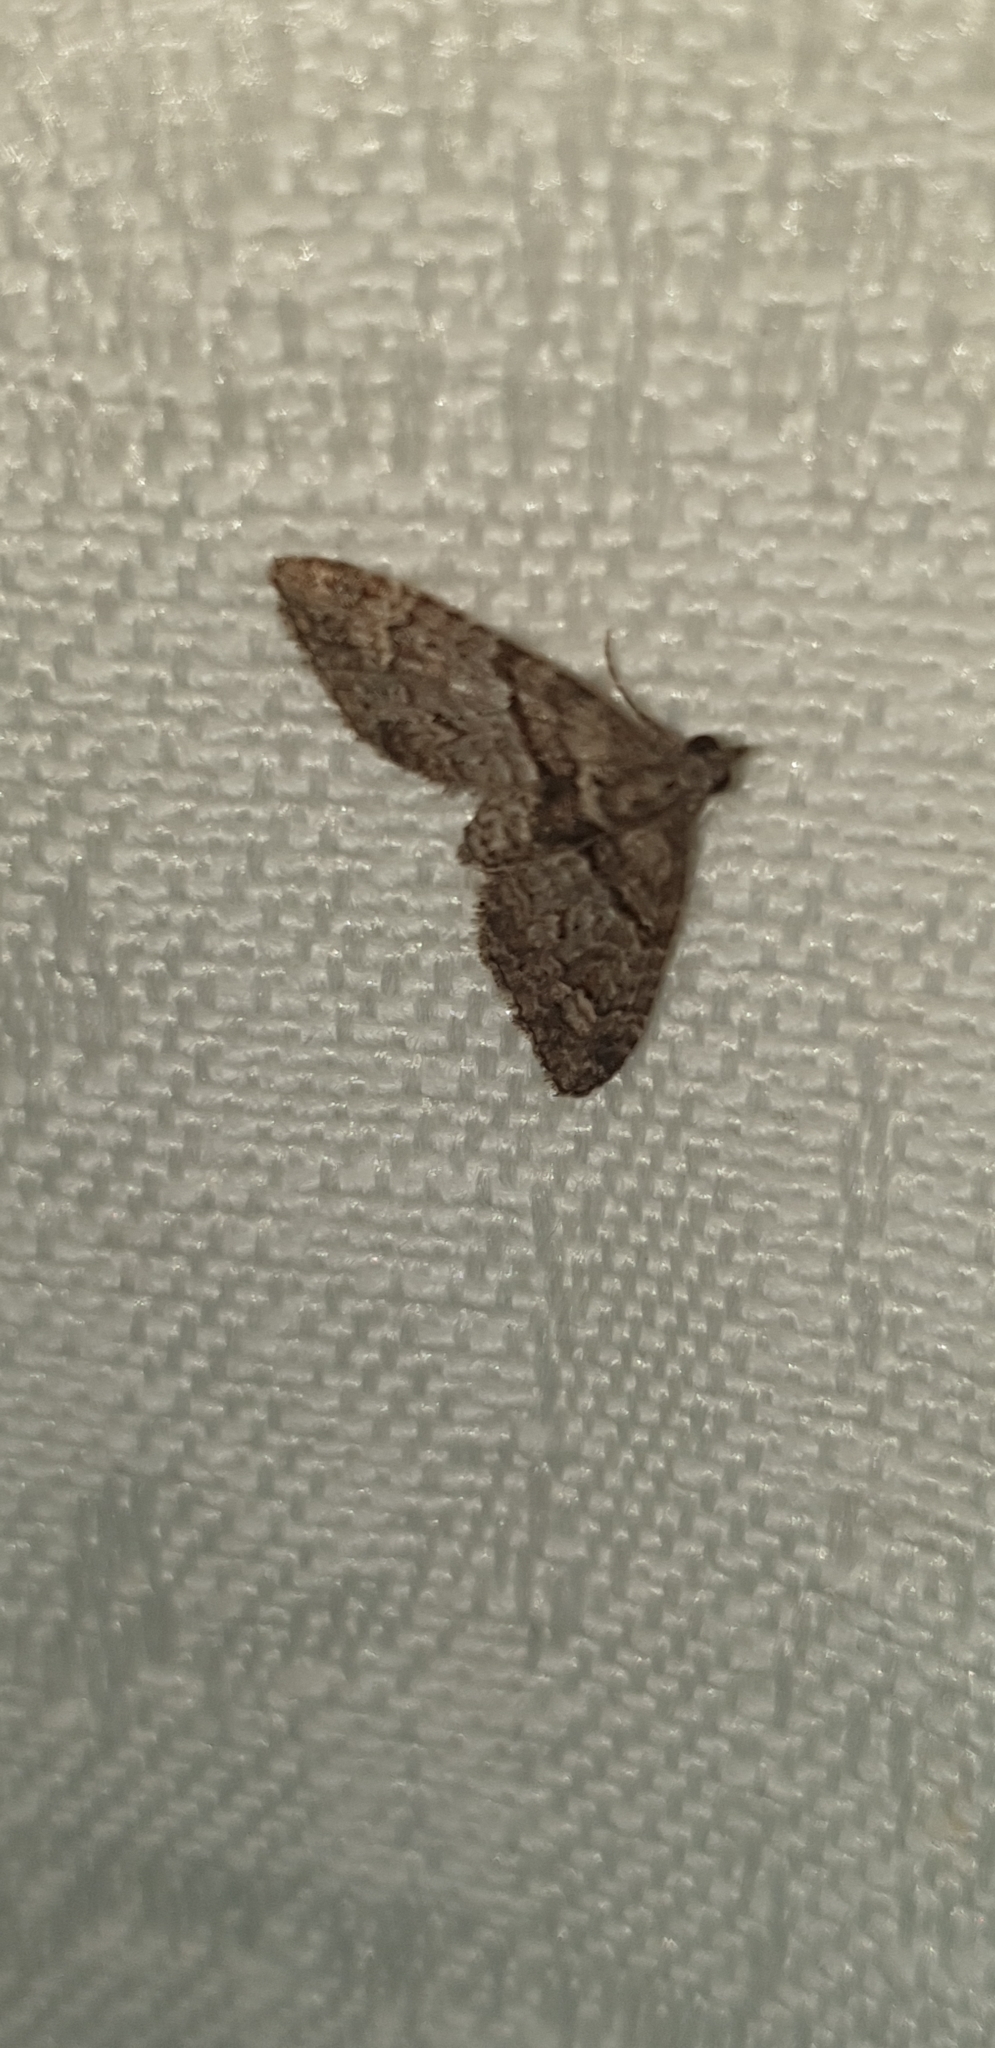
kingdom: Animalia
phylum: Arthropoda
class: Insecta
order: Lepidoptera
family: Geometridae
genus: Phrissogonus
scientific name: Phrissogonus laticostata
